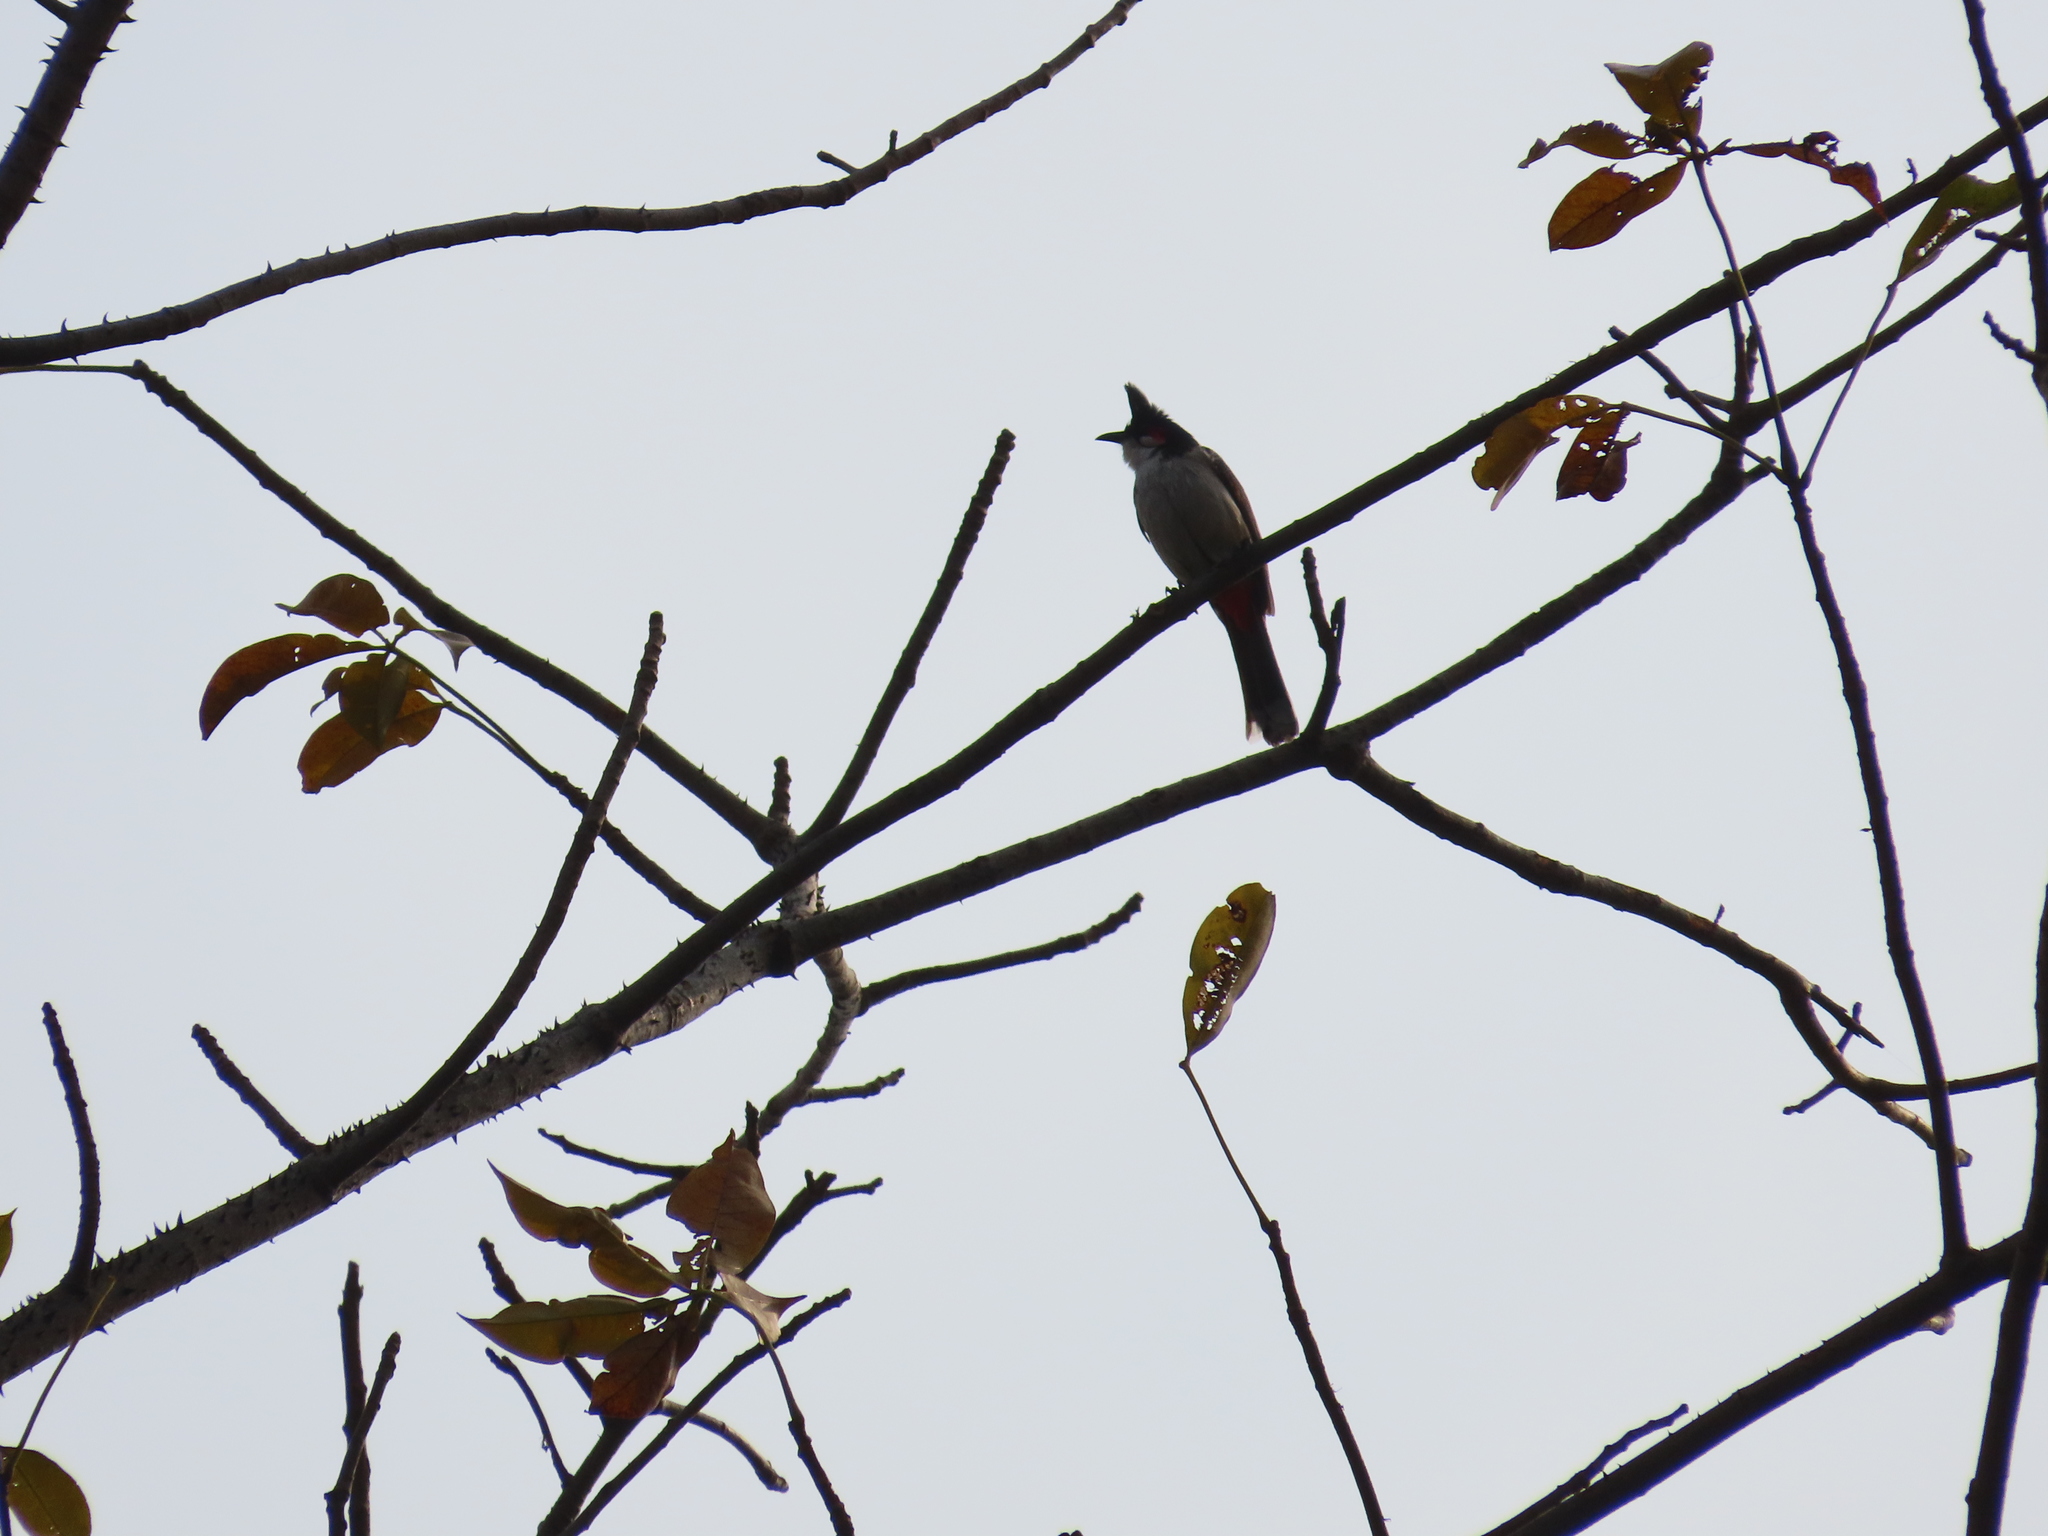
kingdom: Animalia
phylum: Chordata
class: Aves
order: Passeriformes
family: Pycnonotidae
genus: Pycnonotus
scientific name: Pycnonotus jocosus
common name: Red-whiskered bulbul
